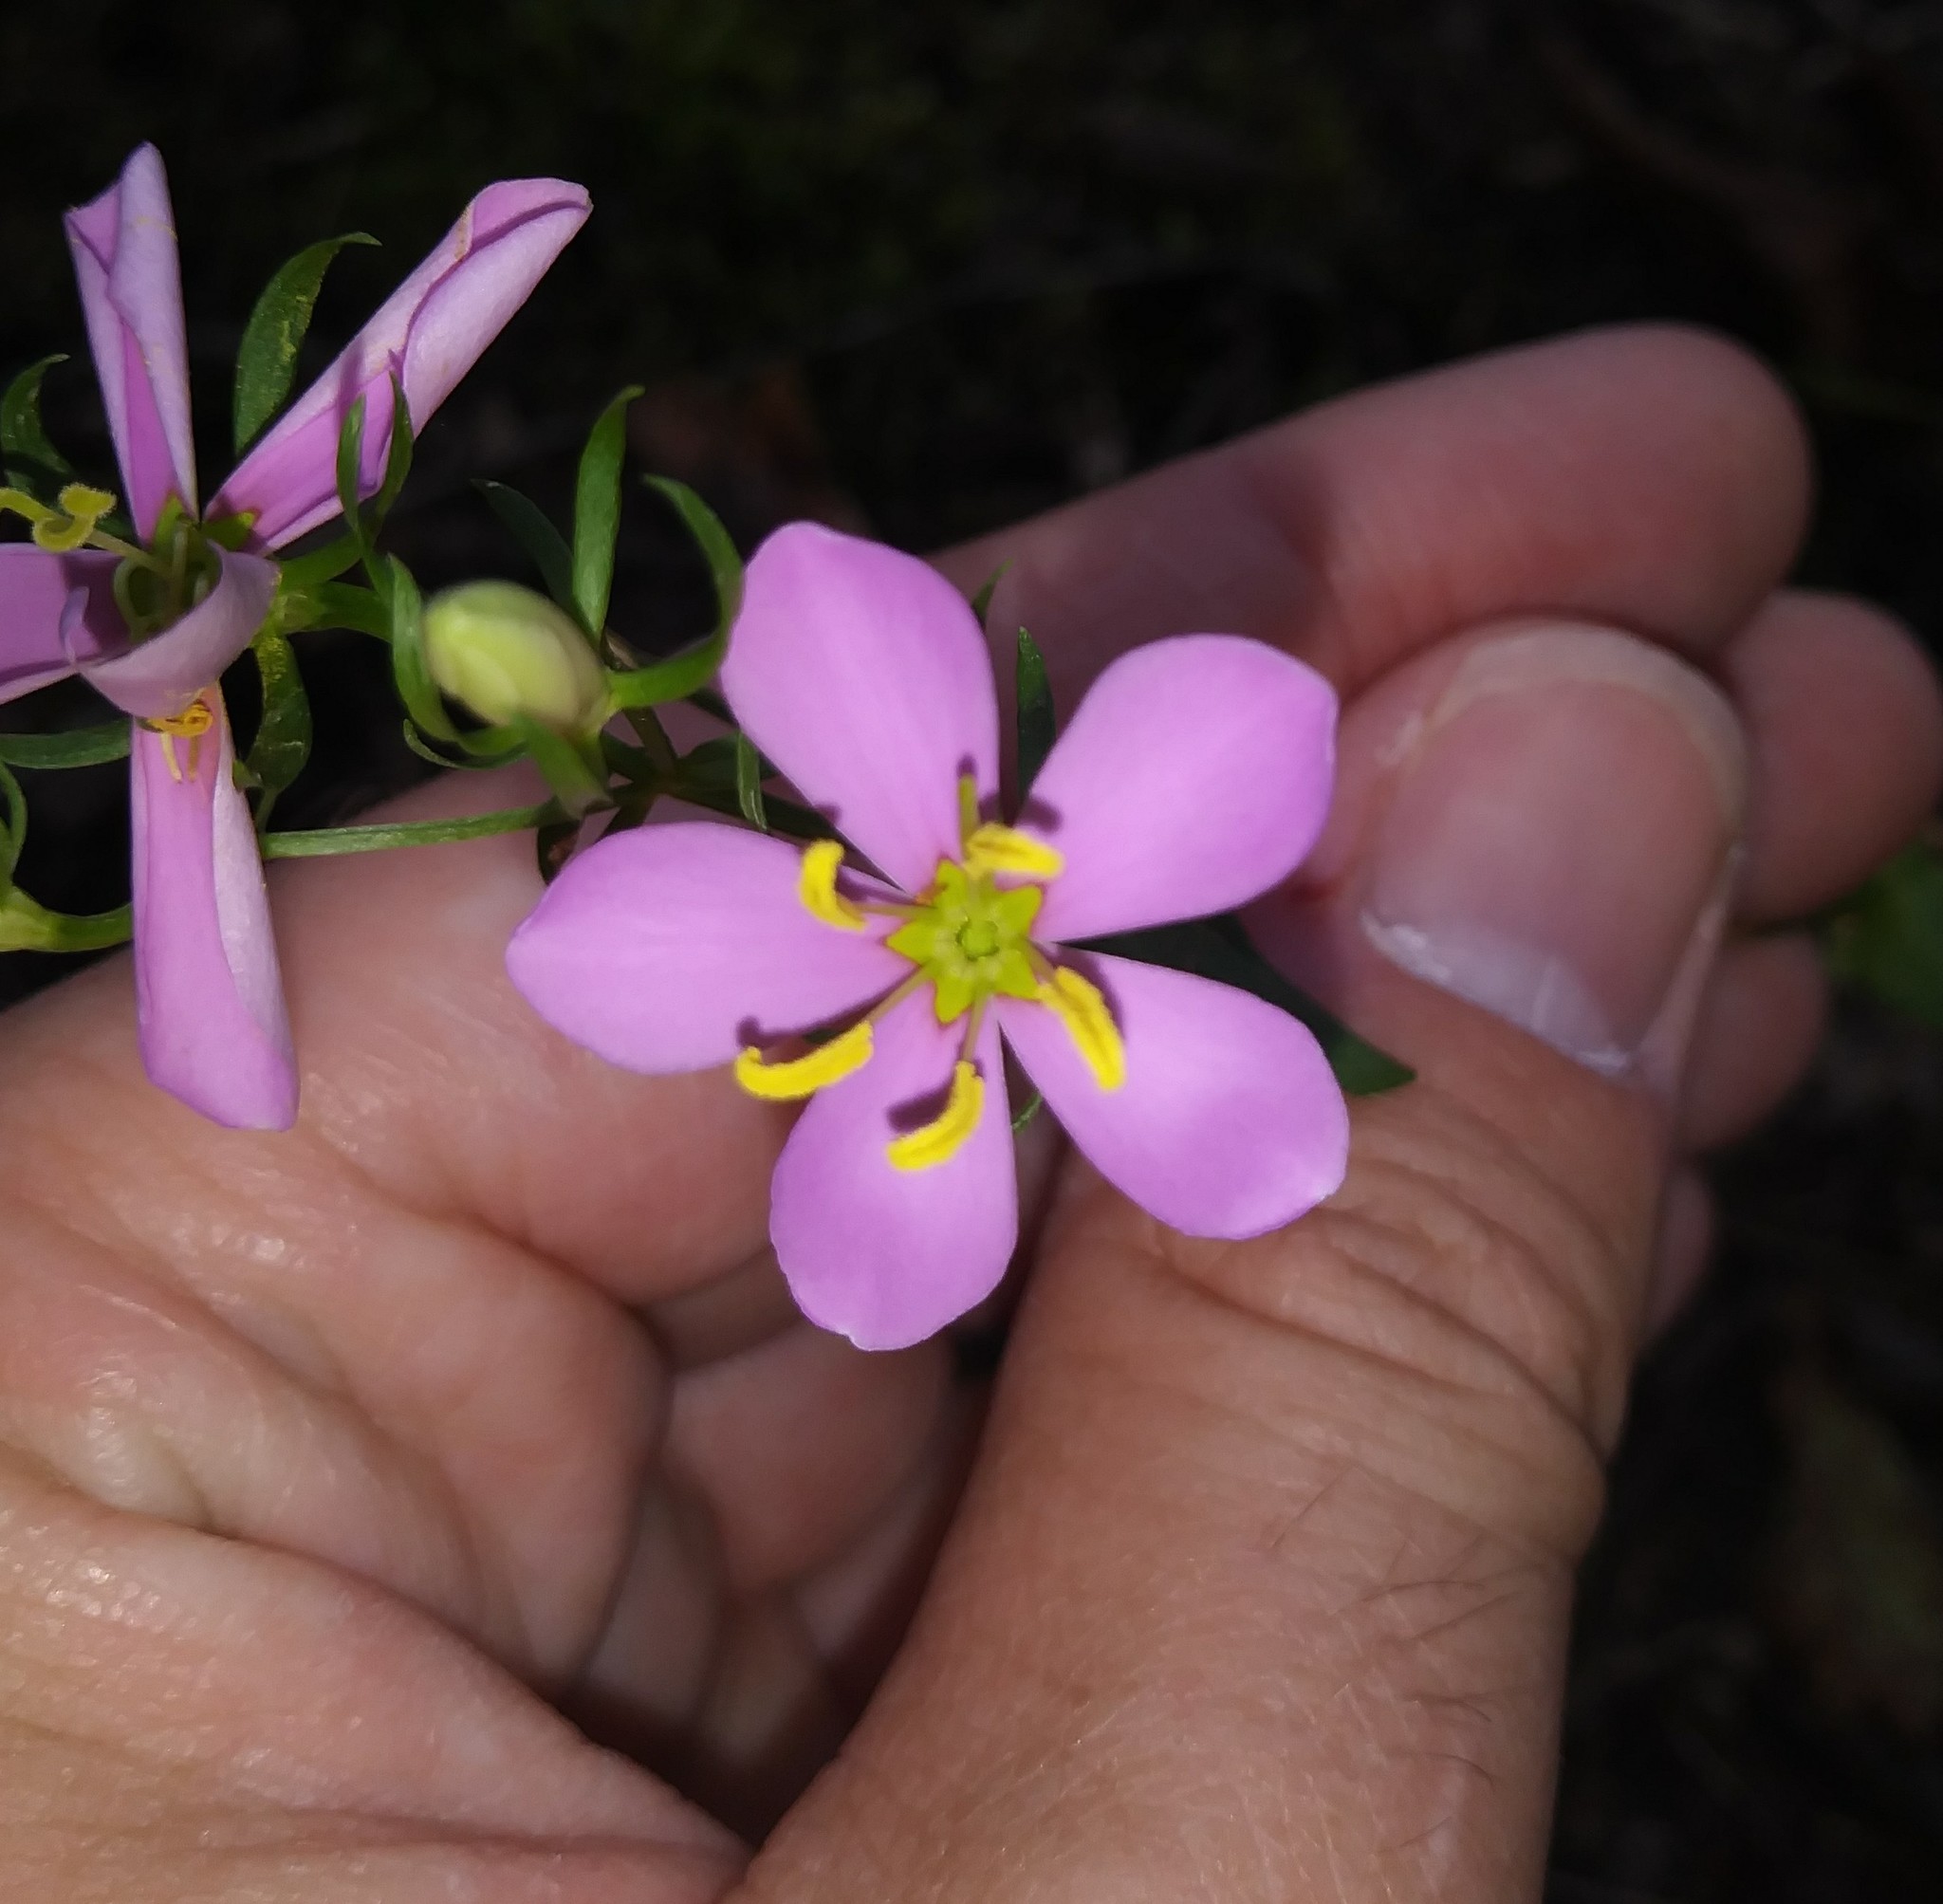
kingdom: Plantae
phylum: Tracheophyta
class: Magnoliopsida
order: Gentianales
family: Gentianaceae
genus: Sabatia
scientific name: Sabatia angularis
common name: Rose-pink
